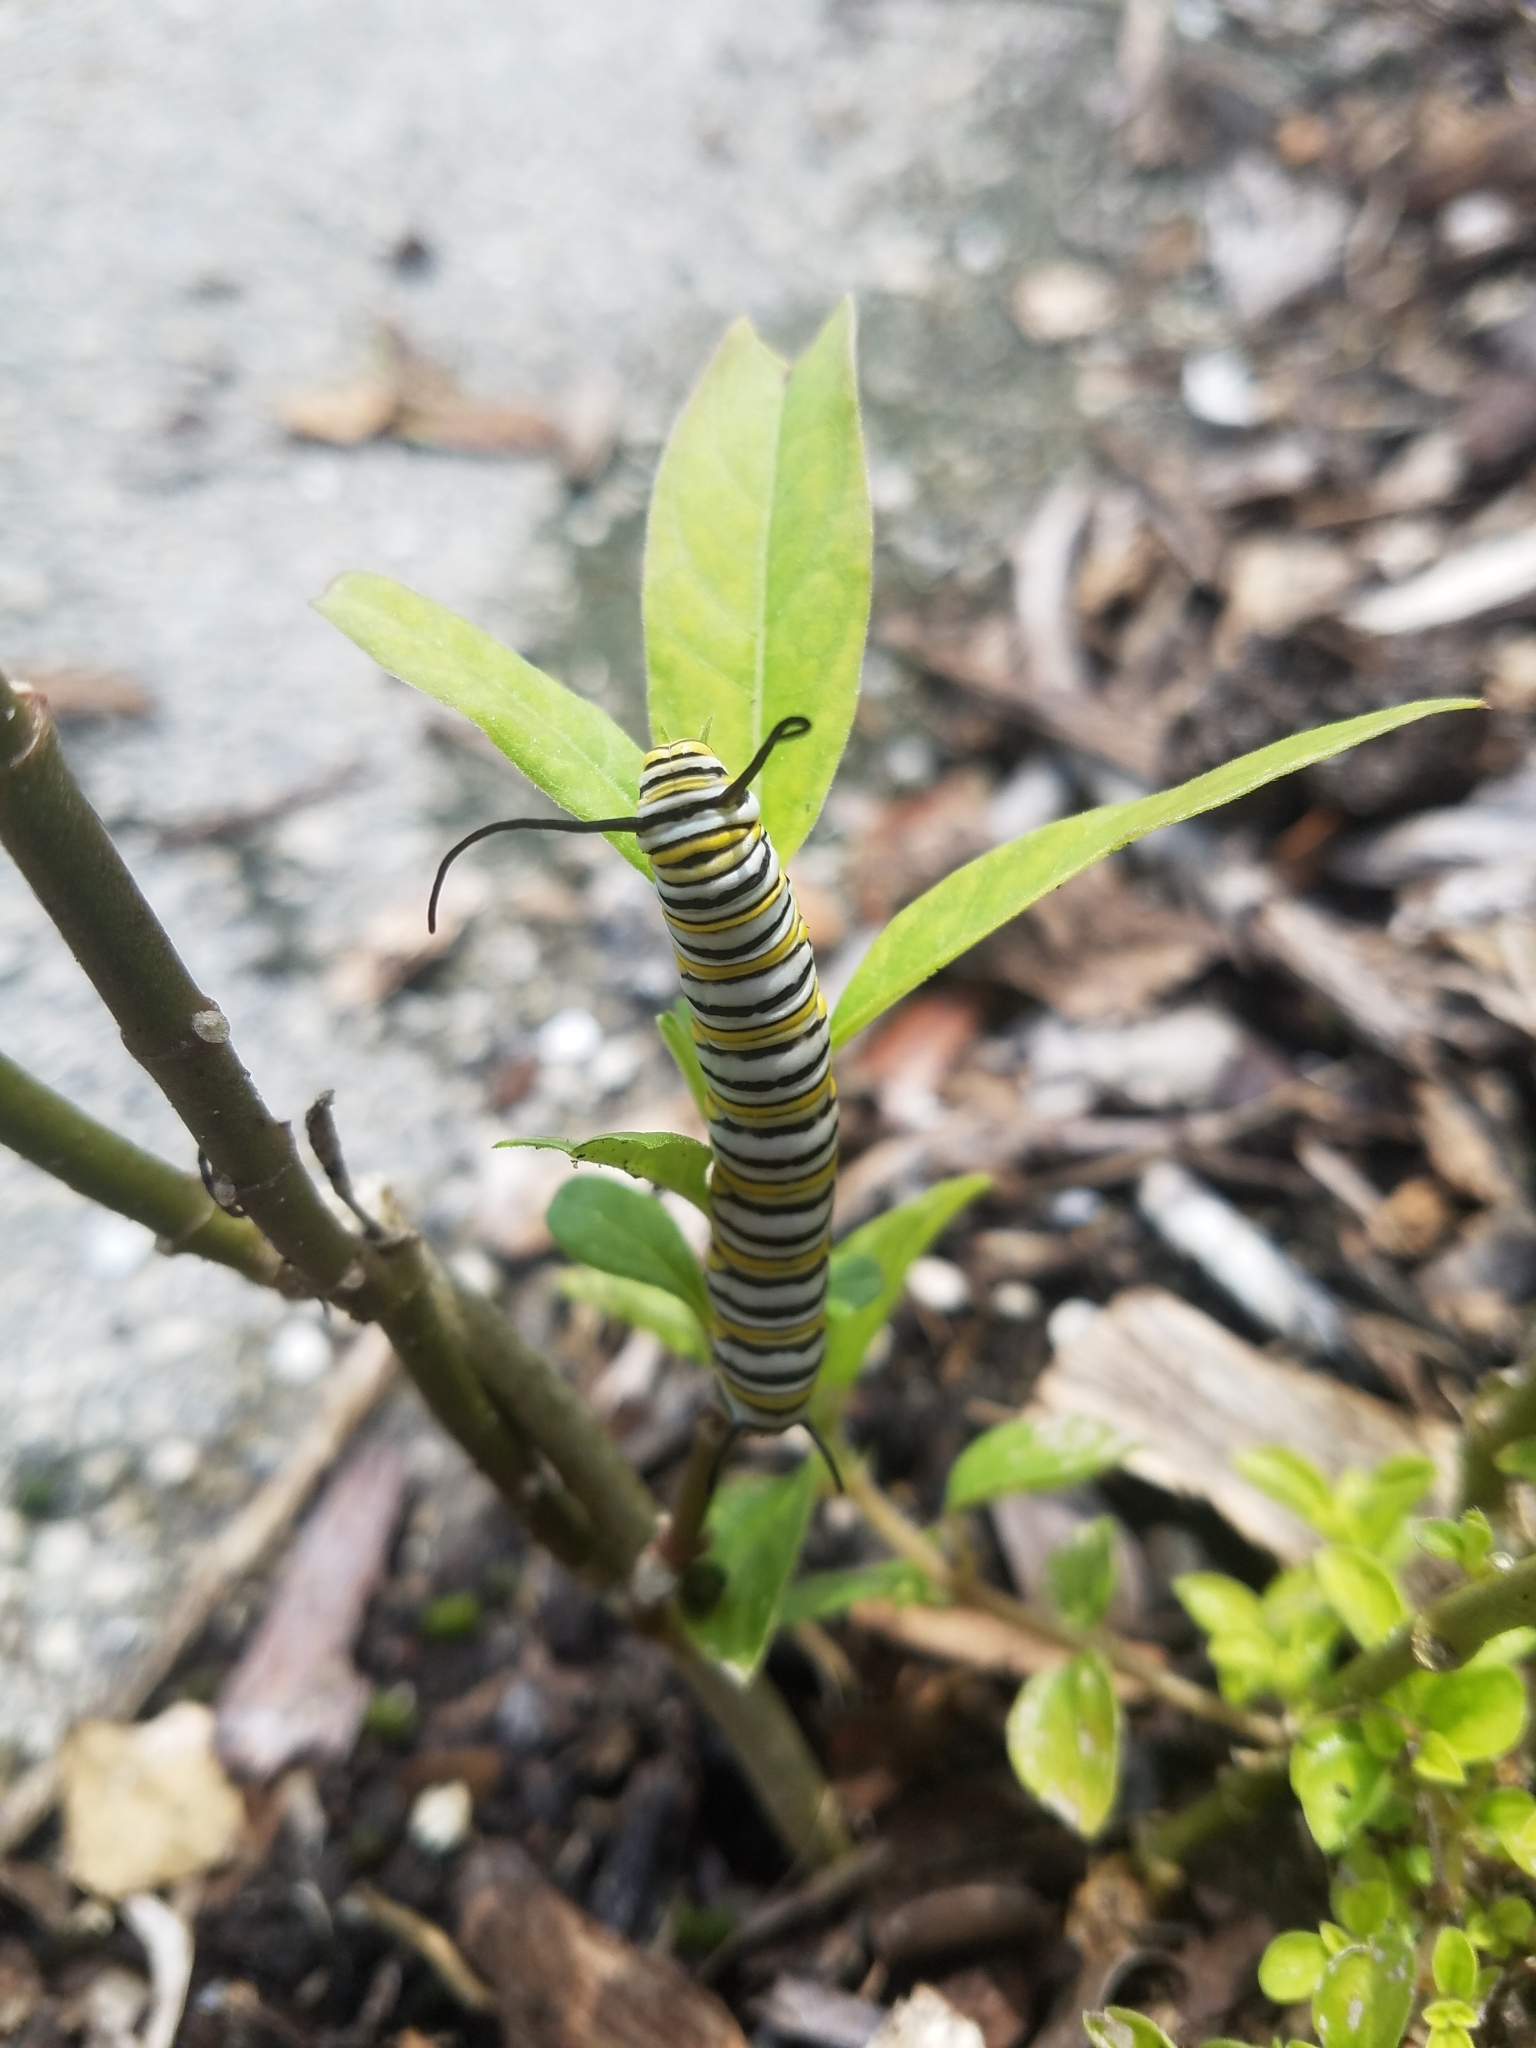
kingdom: Animalia
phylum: Arthropoda
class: Insecta
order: Lepidoptera
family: Nymphalidae
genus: Danaus
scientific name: Danaus plexippus
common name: Monarch
